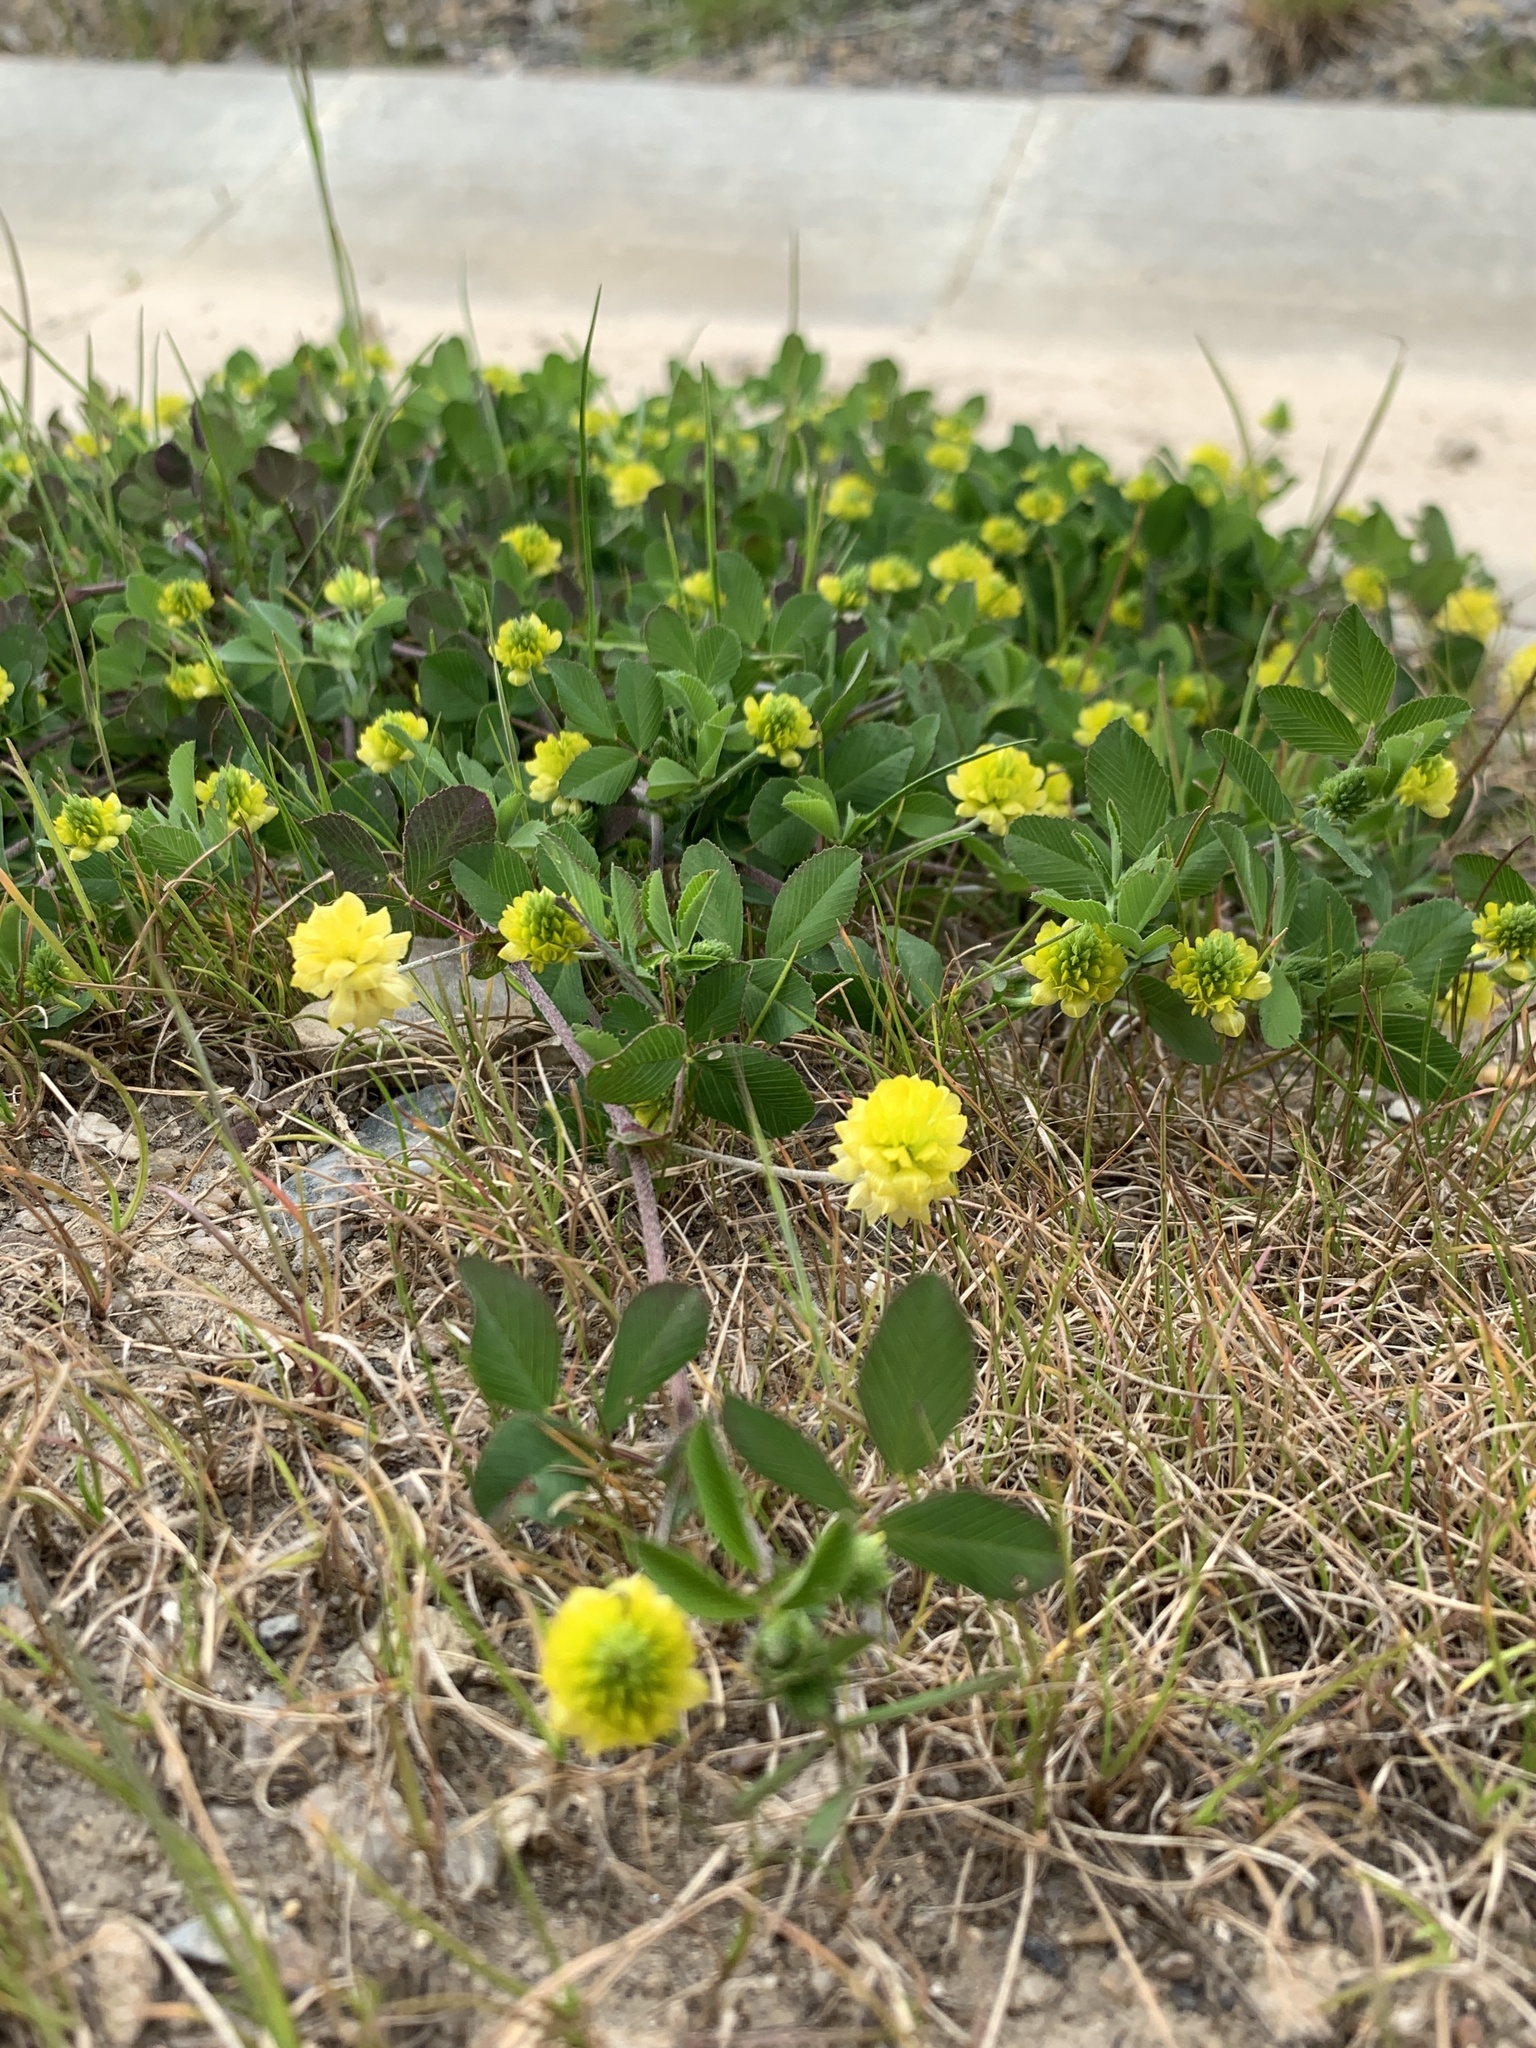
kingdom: Plantae
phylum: Tracheophyta
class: Magnoliopsida
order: Fabales
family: Fabaceae
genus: Trifolium
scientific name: Trifolium campestre
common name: Field clover
